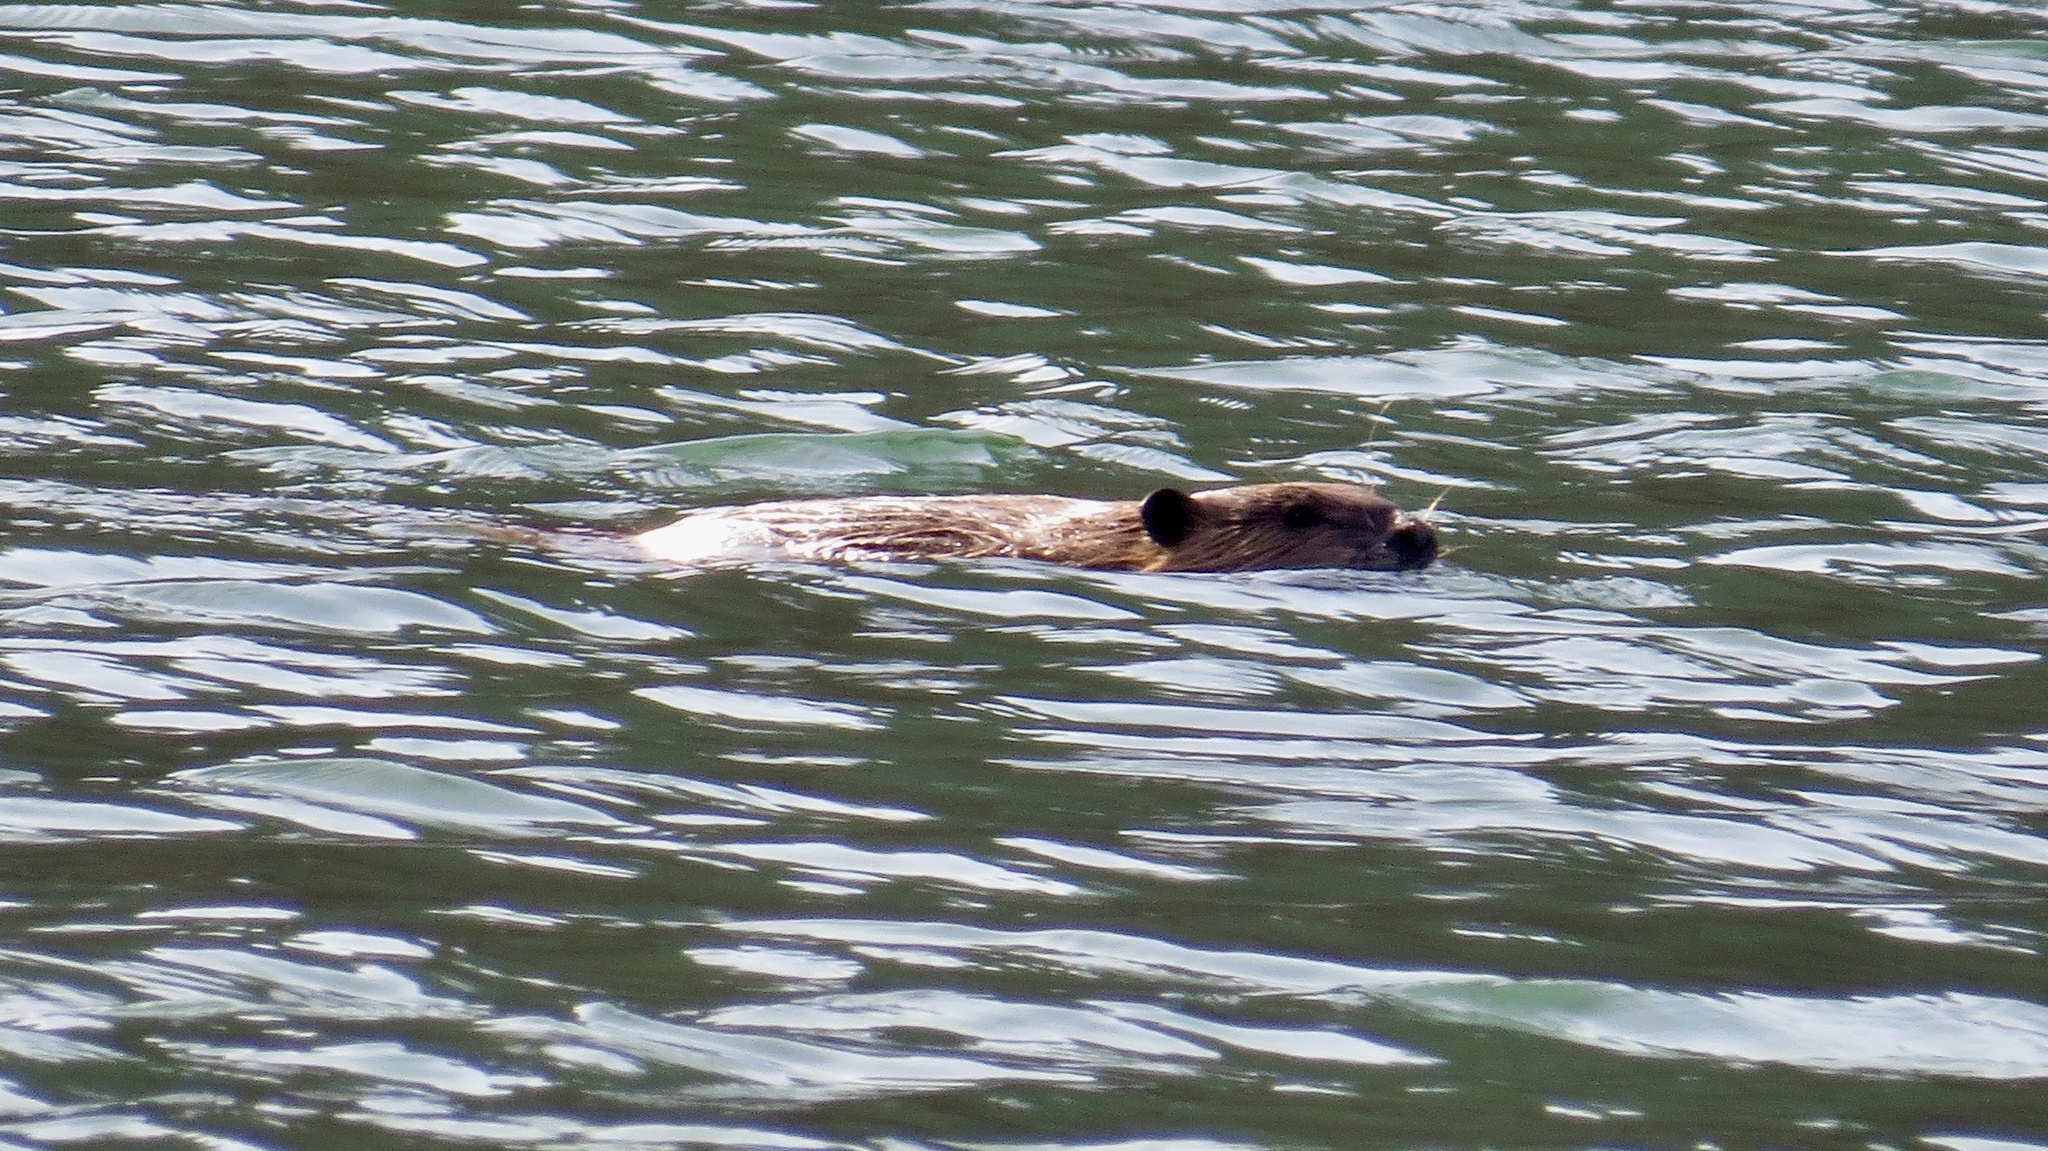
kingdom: Animalia
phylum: Chordata
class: Mammalia
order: Rodentia
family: Castoridae
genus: Castor
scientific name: Castor canadensis
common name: American beaver
